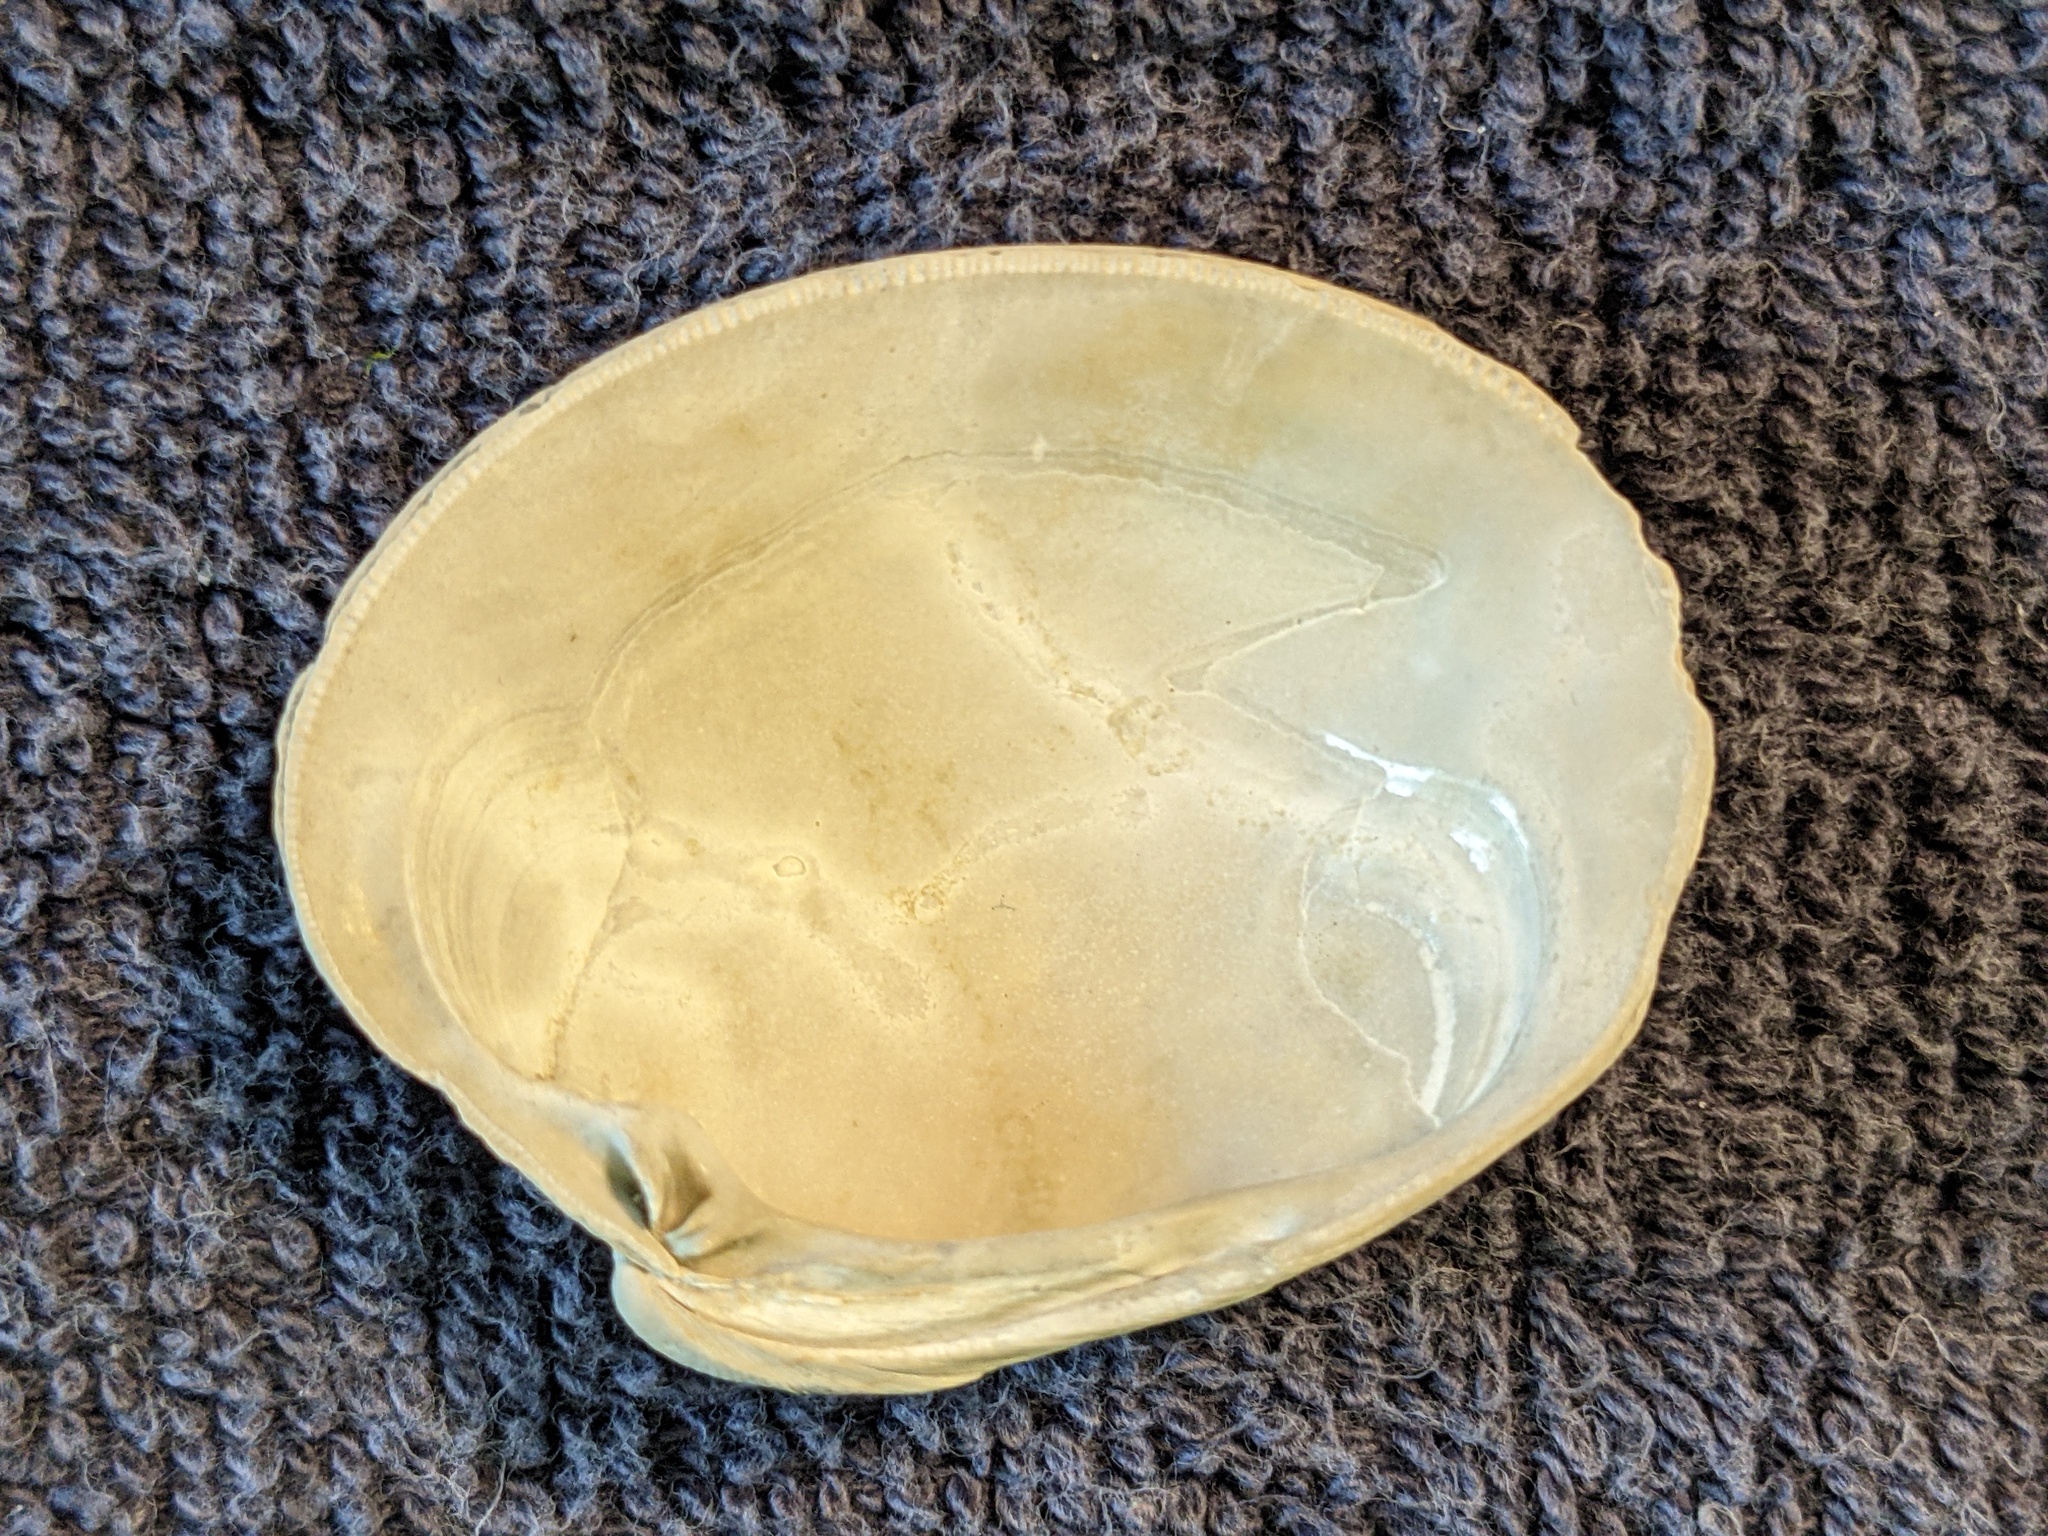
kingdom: Animalia
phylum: Mollusca
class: Bivalvia
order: Venerida
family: Veneridae
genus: Mercenaria
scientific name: Mercenaria campechiensis
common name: Südliche quahog-muschel
